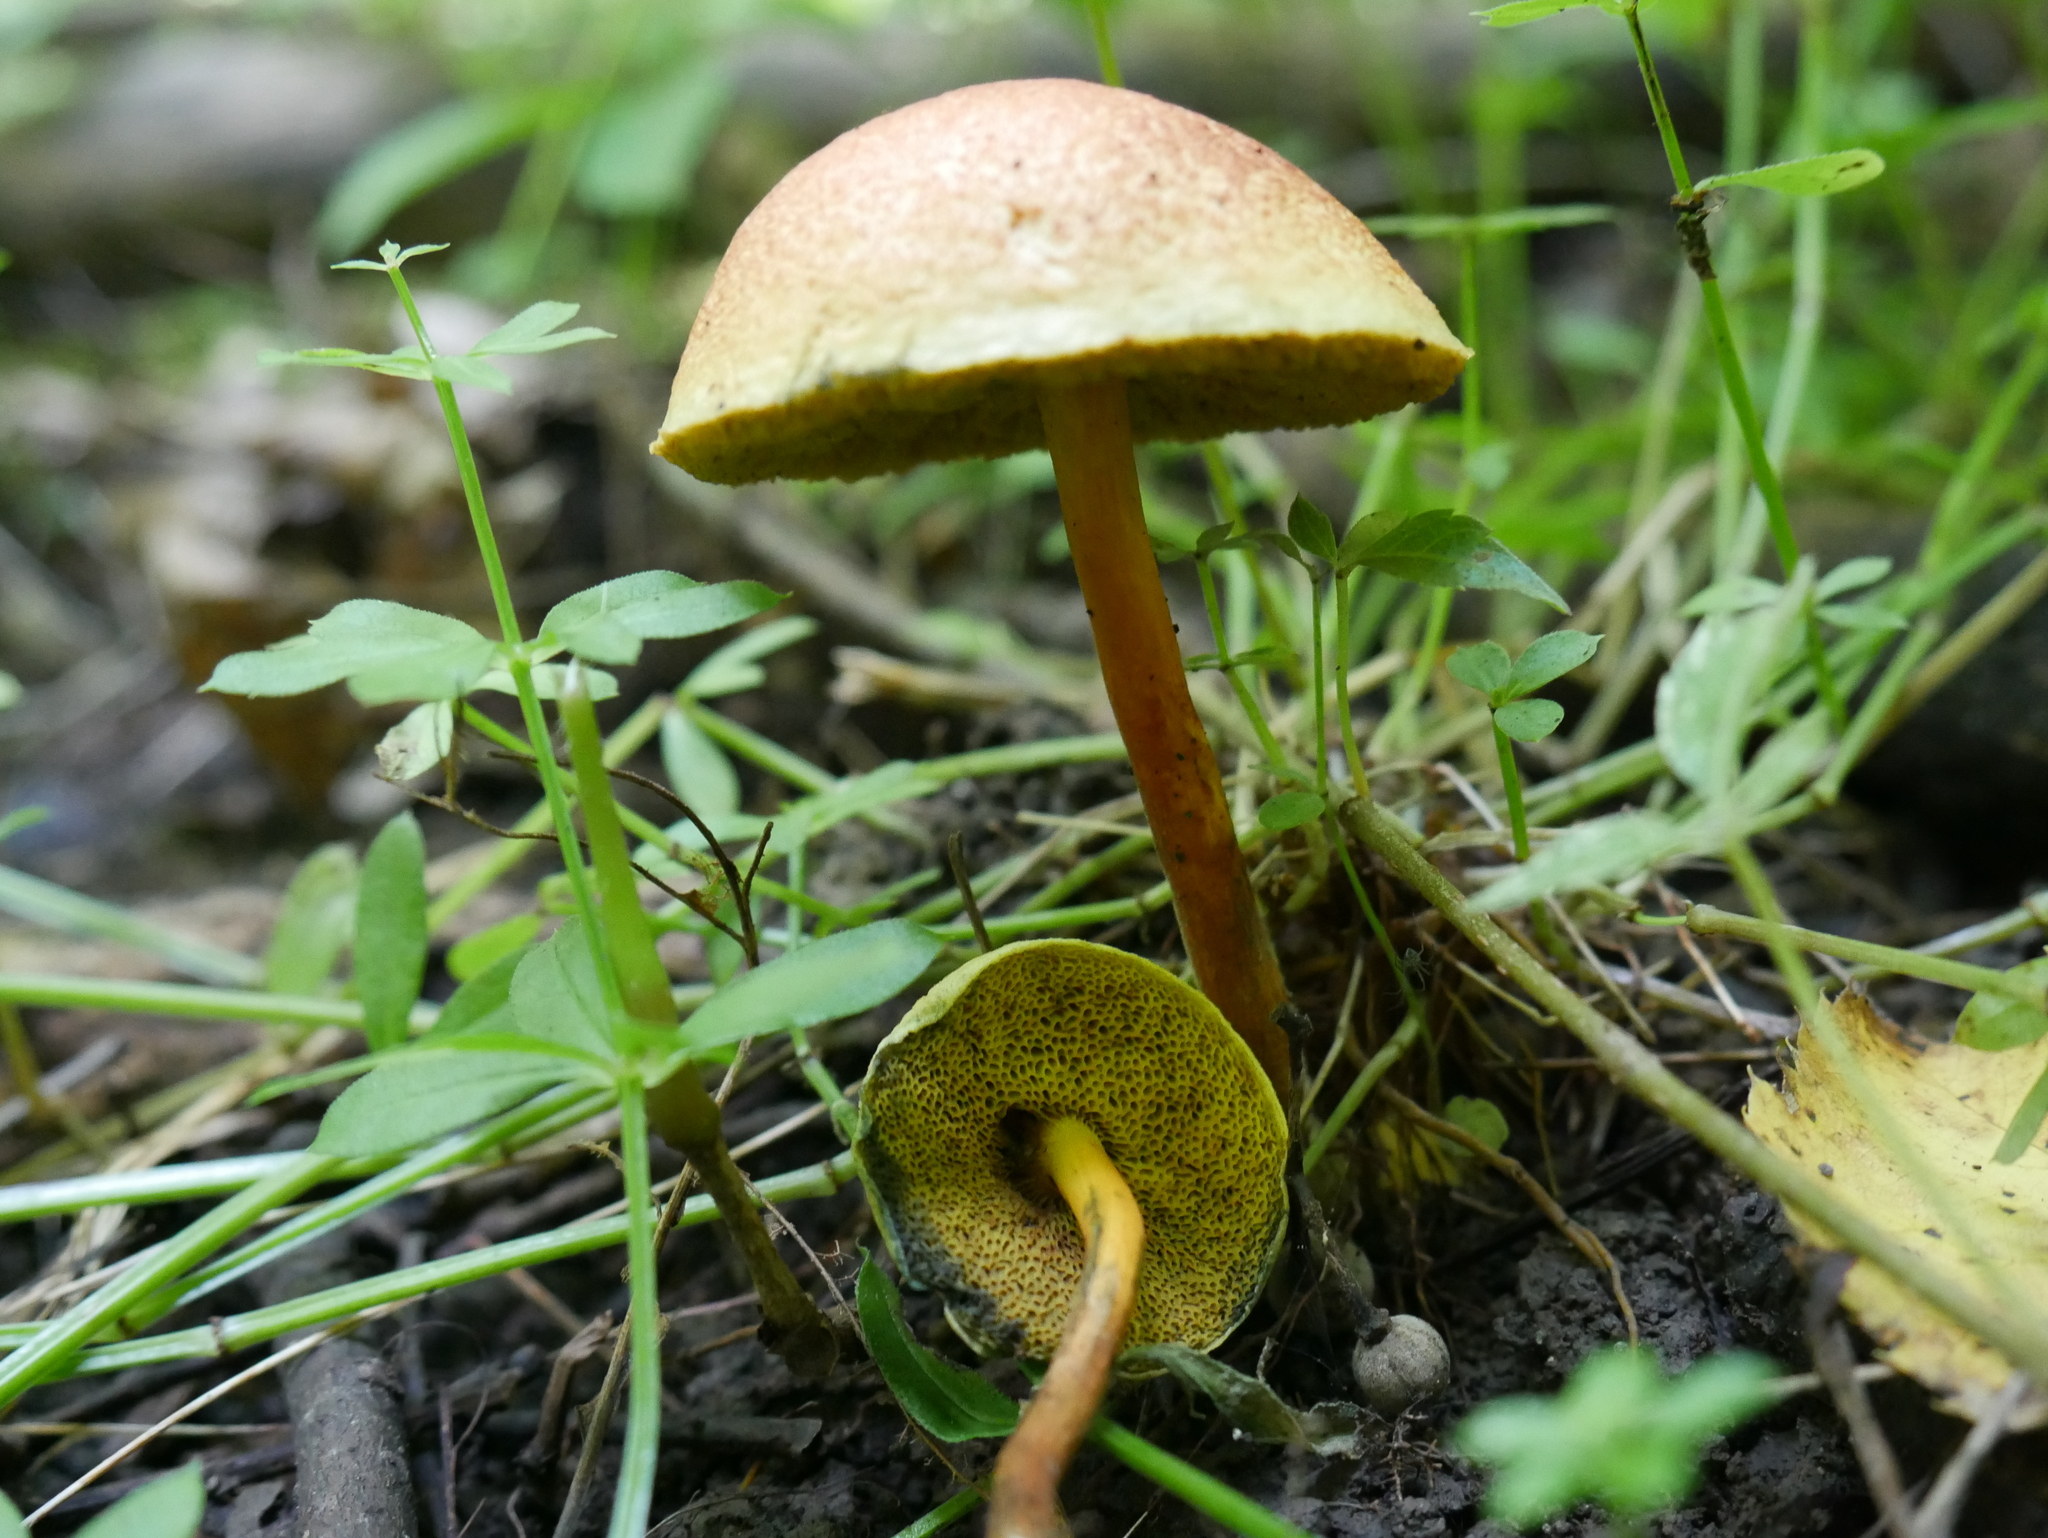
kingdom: Fungi
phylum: Basidiomycota
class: Agaricomycetes
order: Boletales
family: Boletaceae
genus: Hortiboletus
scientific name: Hortiboletus rubellus
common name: Ruby bolete
